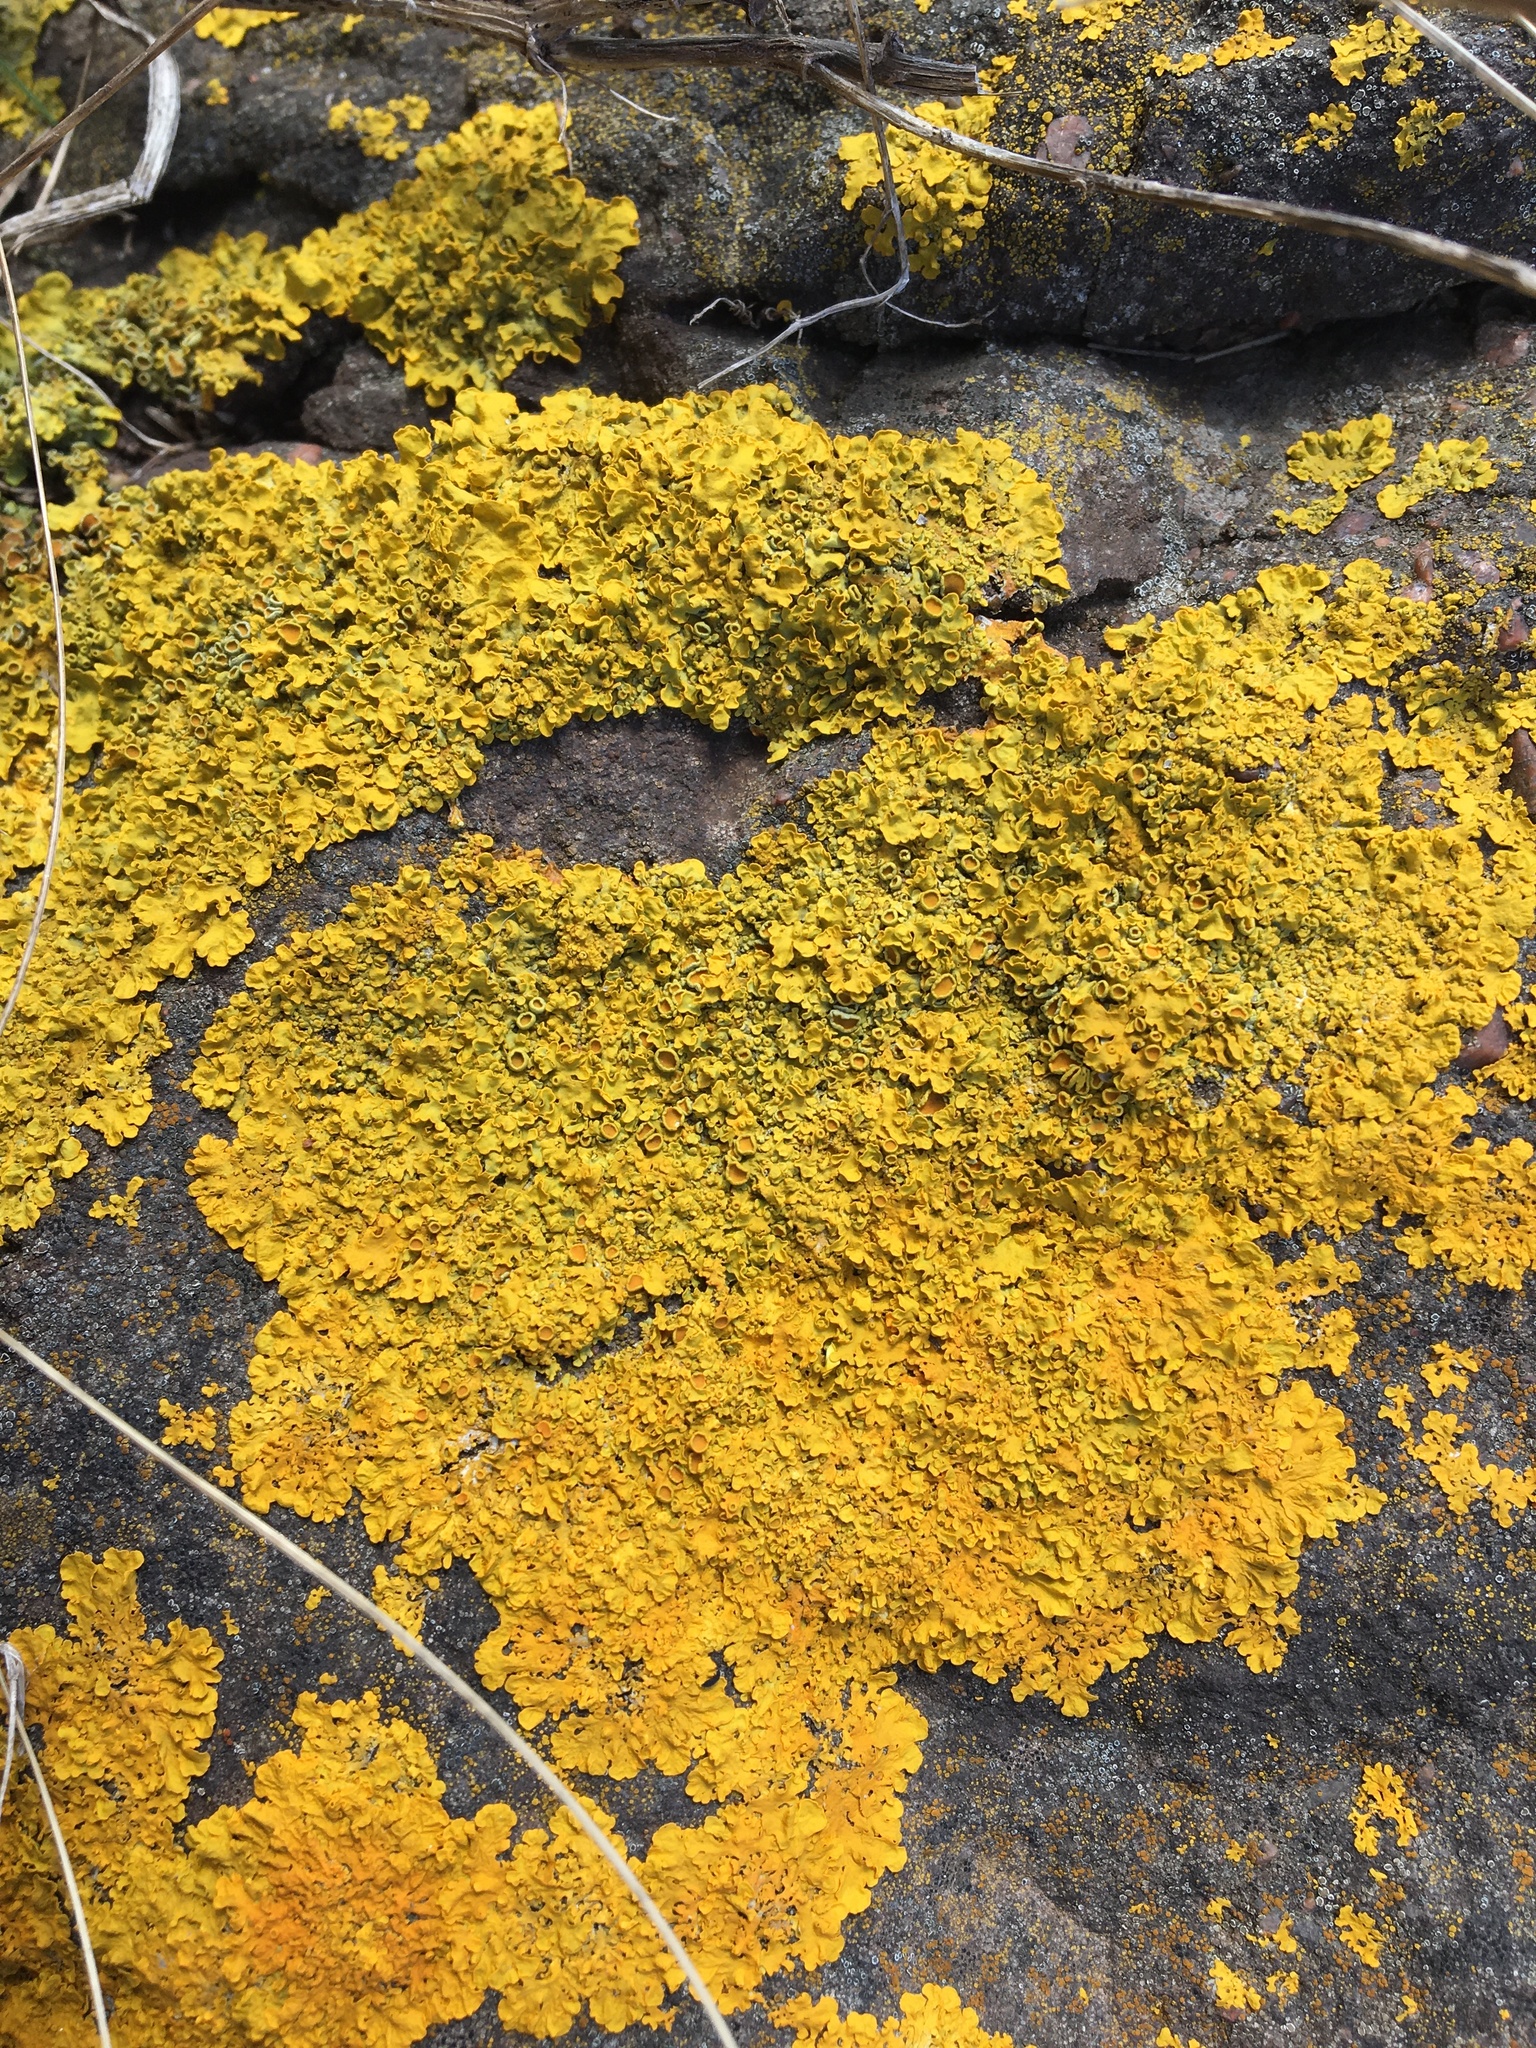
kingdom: Fungi
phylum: Ascomycota
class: Lecanoromycetes
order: Teloschistales
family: Teloschistaceae
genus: Xanthoria
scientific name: Xanthoria parietina
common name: Common orange lichen
